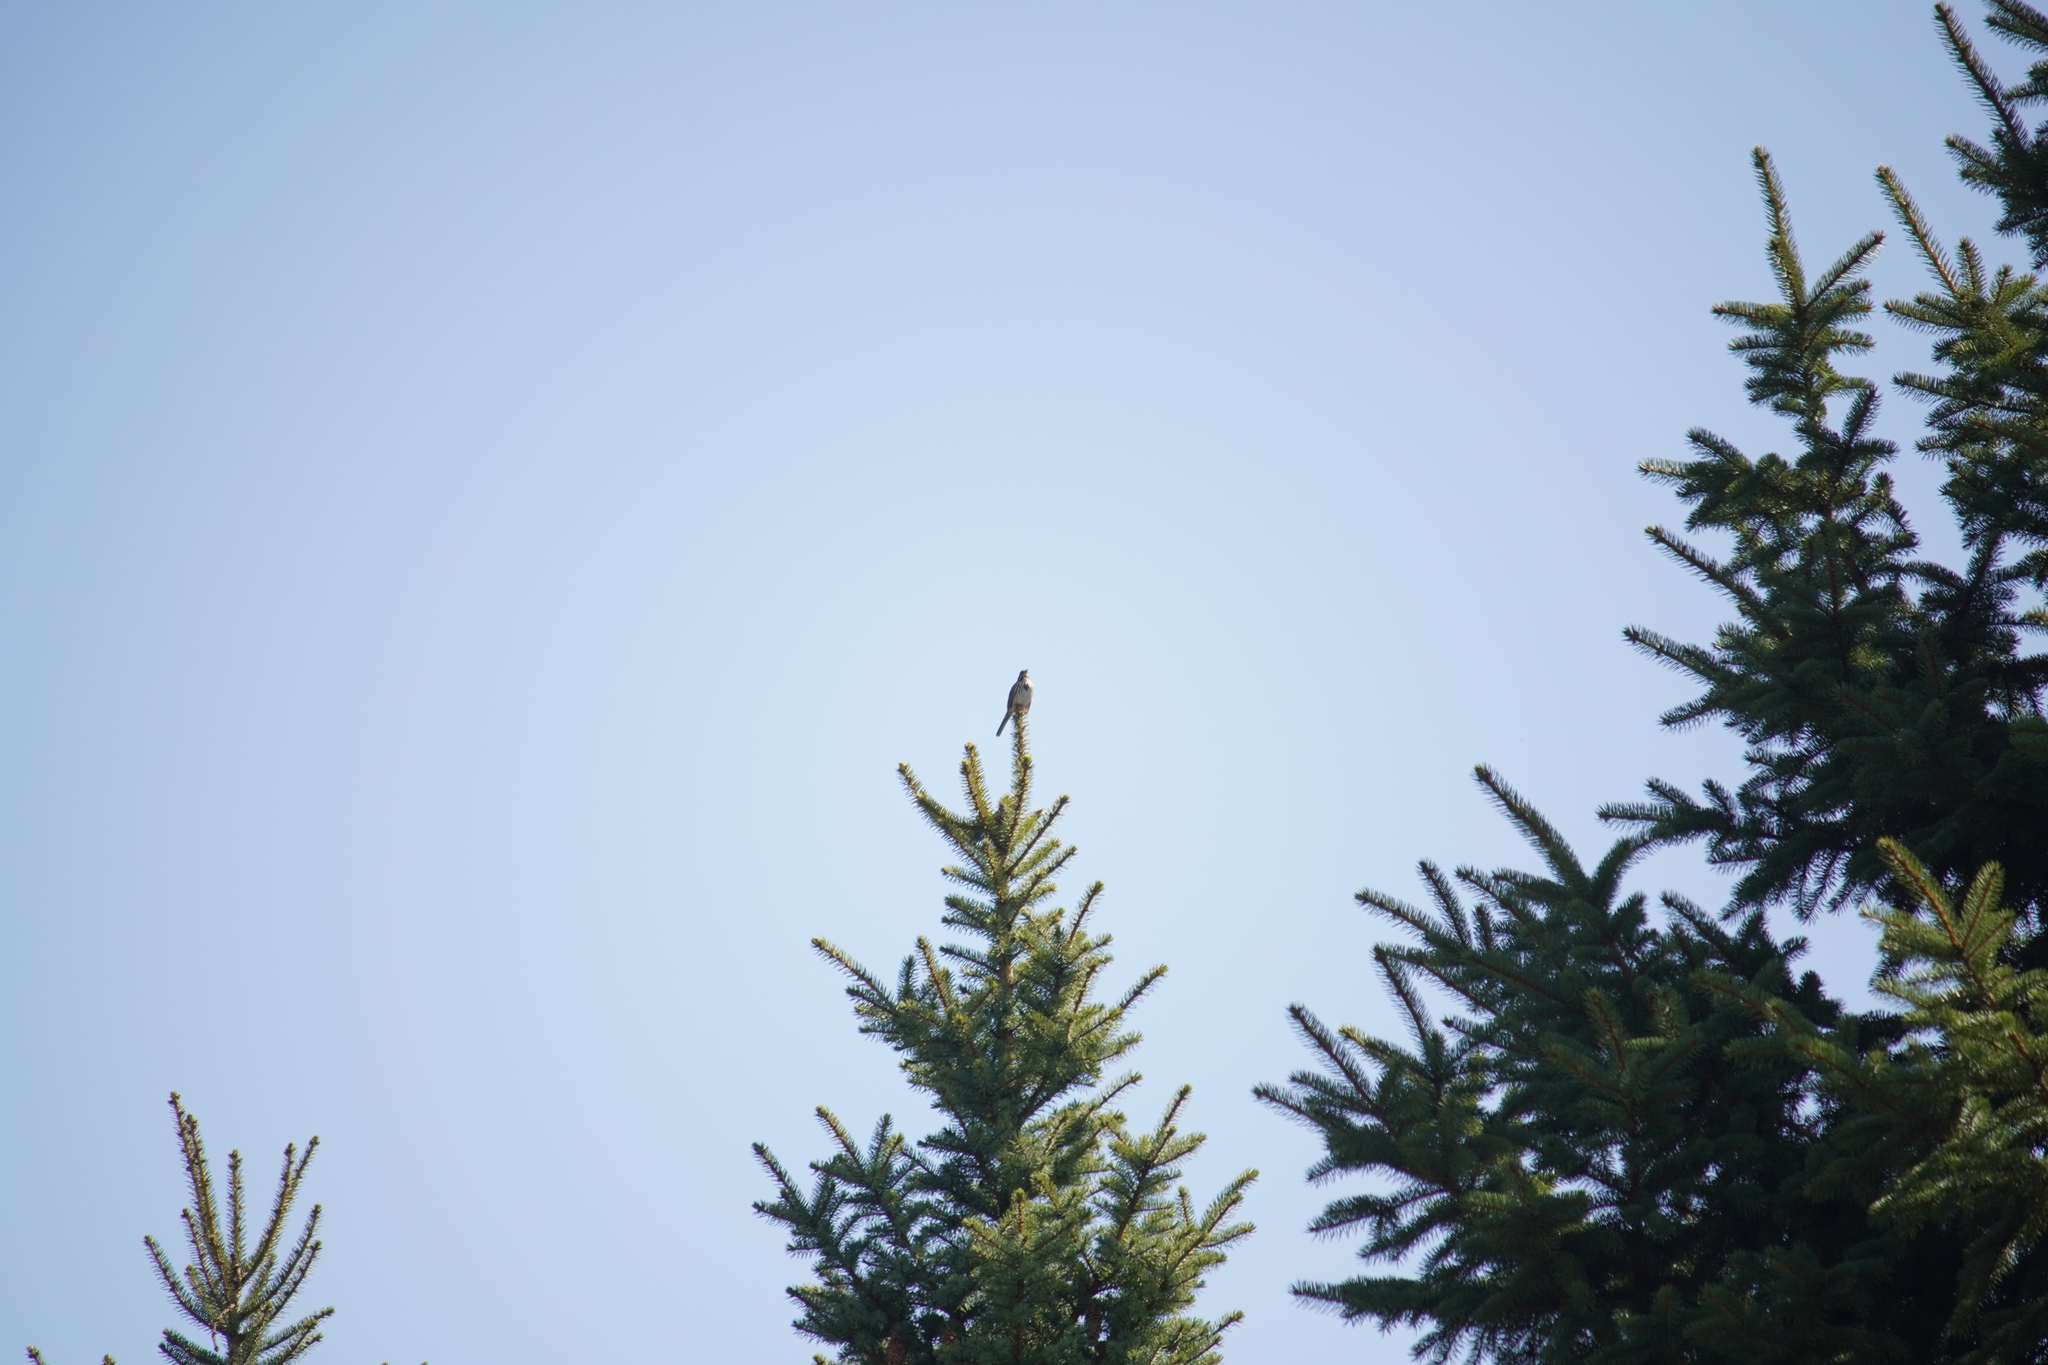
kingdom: Animalia
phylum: Chordata
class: Aves
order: Passeriformes
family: Passerellidae
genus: Melospiza
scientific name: Melospiza melodia
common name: Song sparrow
